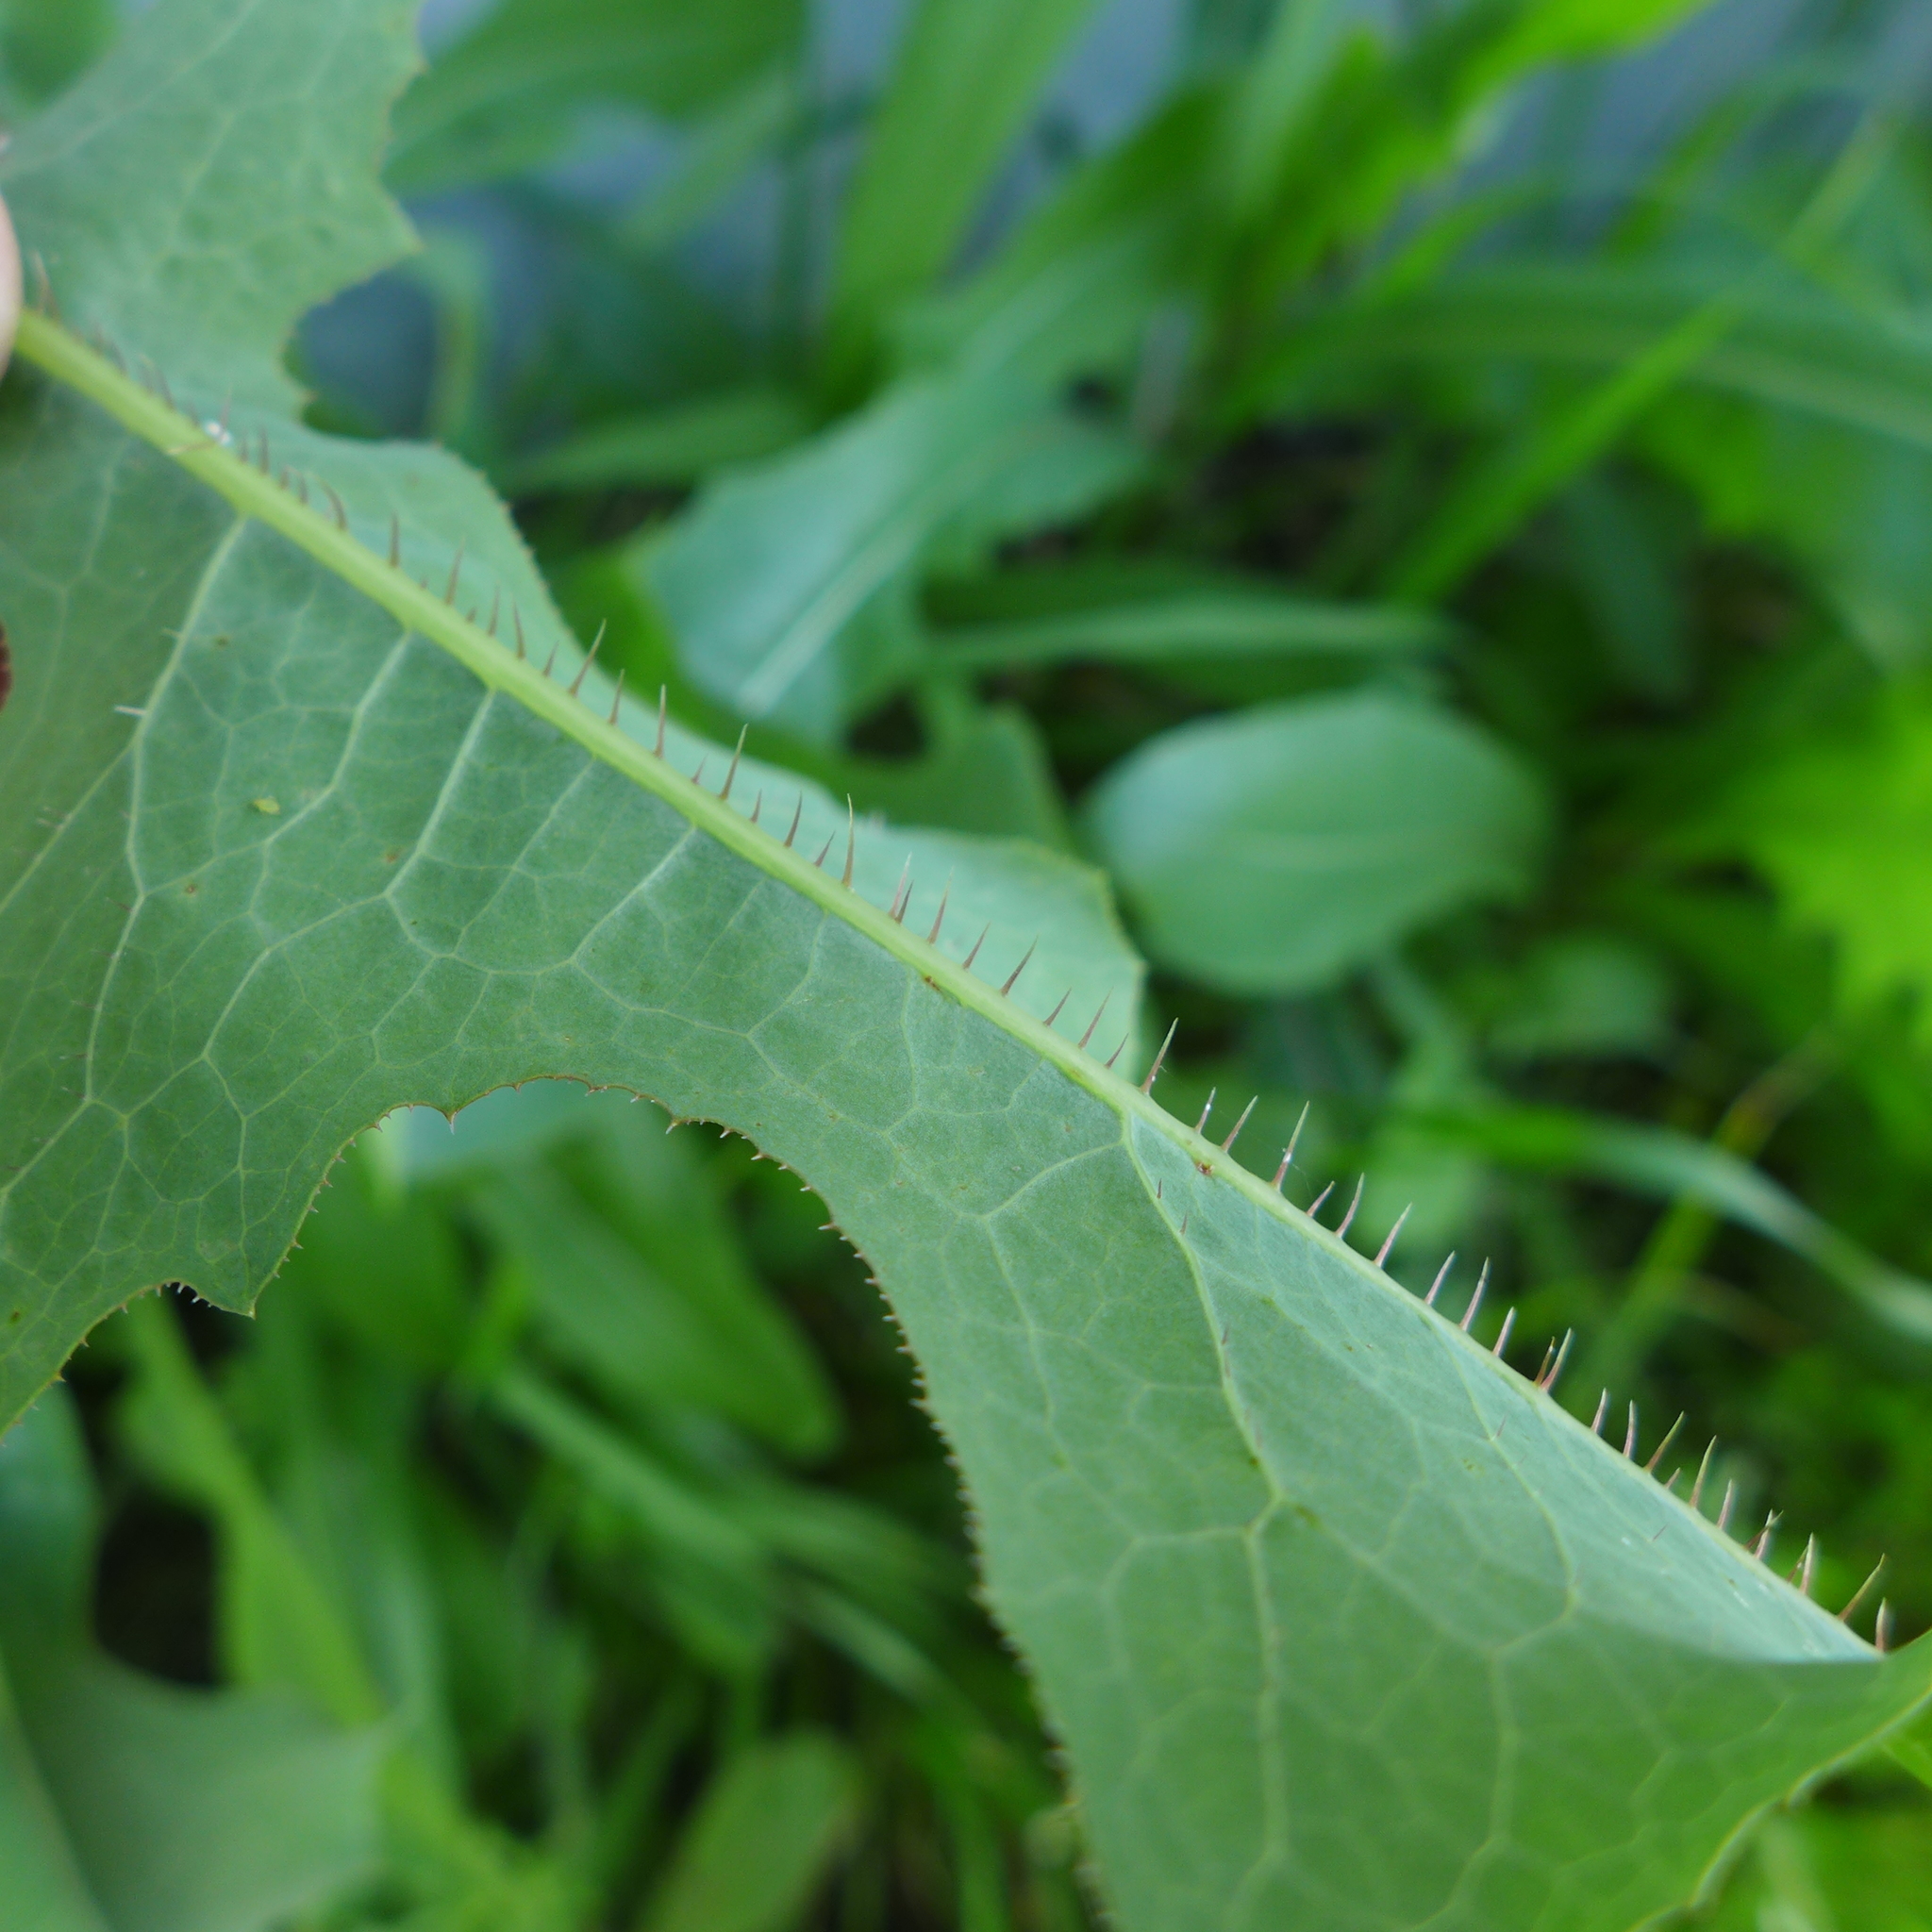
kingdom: Plantae
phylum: Tracheophyta
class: Magnoliopsida
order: Asterales
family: Asteraceae
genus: Lactuca
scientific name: Lactuca serriola
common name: Prickly lettuce
